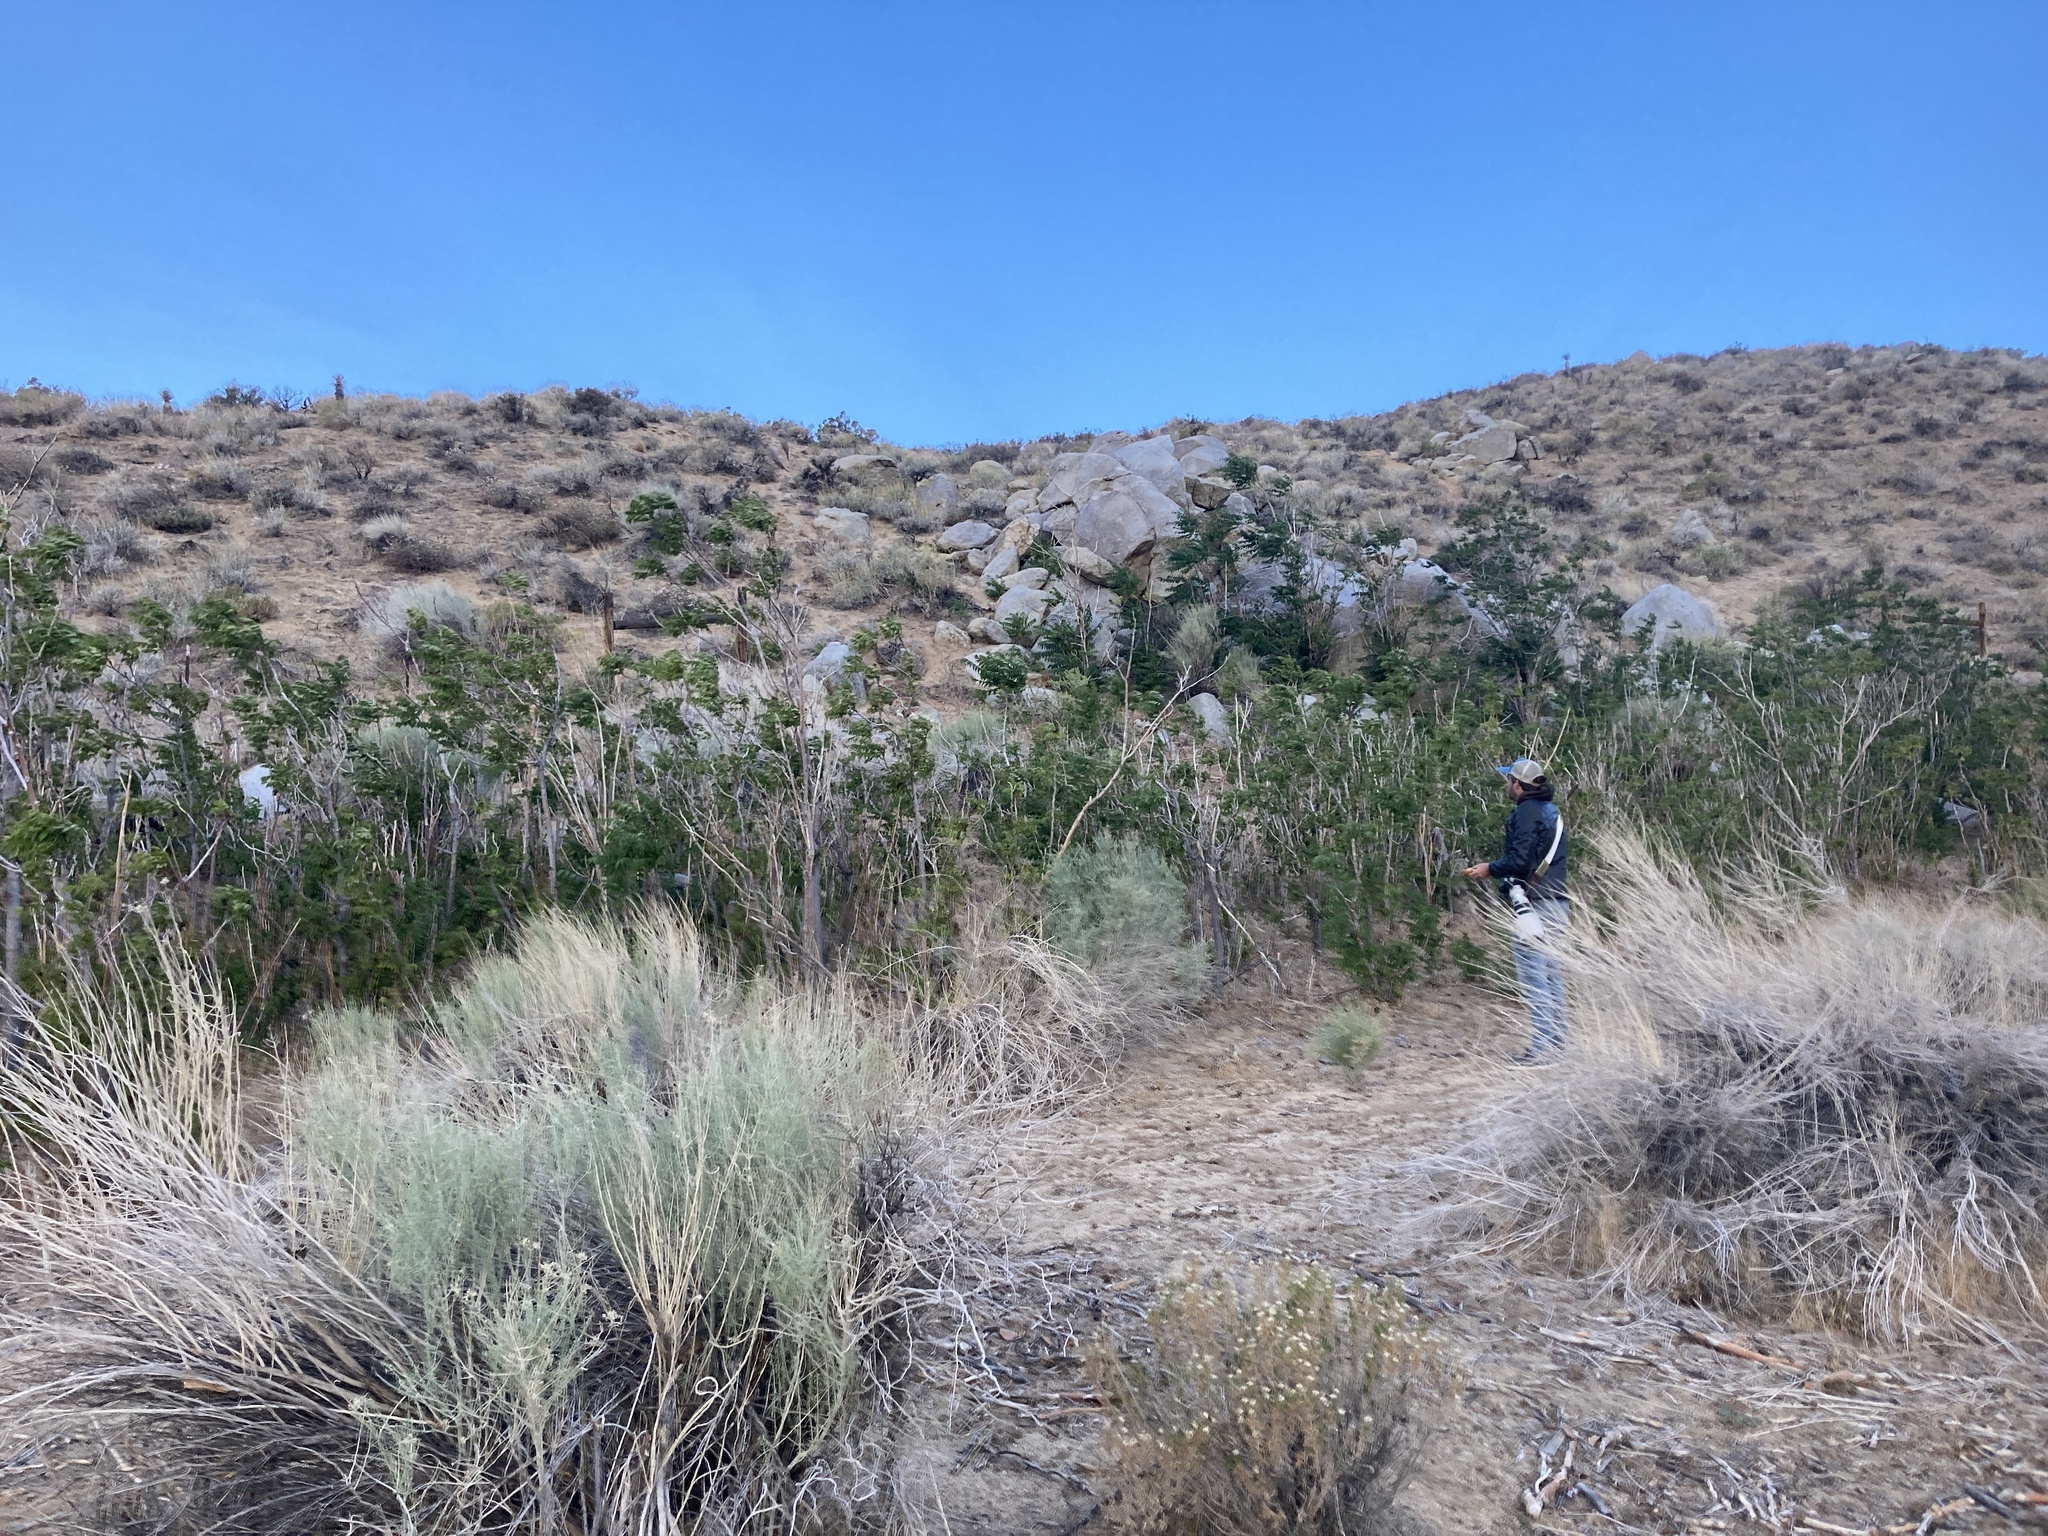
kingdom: Plantae
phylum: Tracheophyta
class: Magnoliopsida
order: Sapindales
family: Simaroubaceae
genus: Ailanthus
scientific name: Ailanthus altissima
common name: Tree-of-heaven
